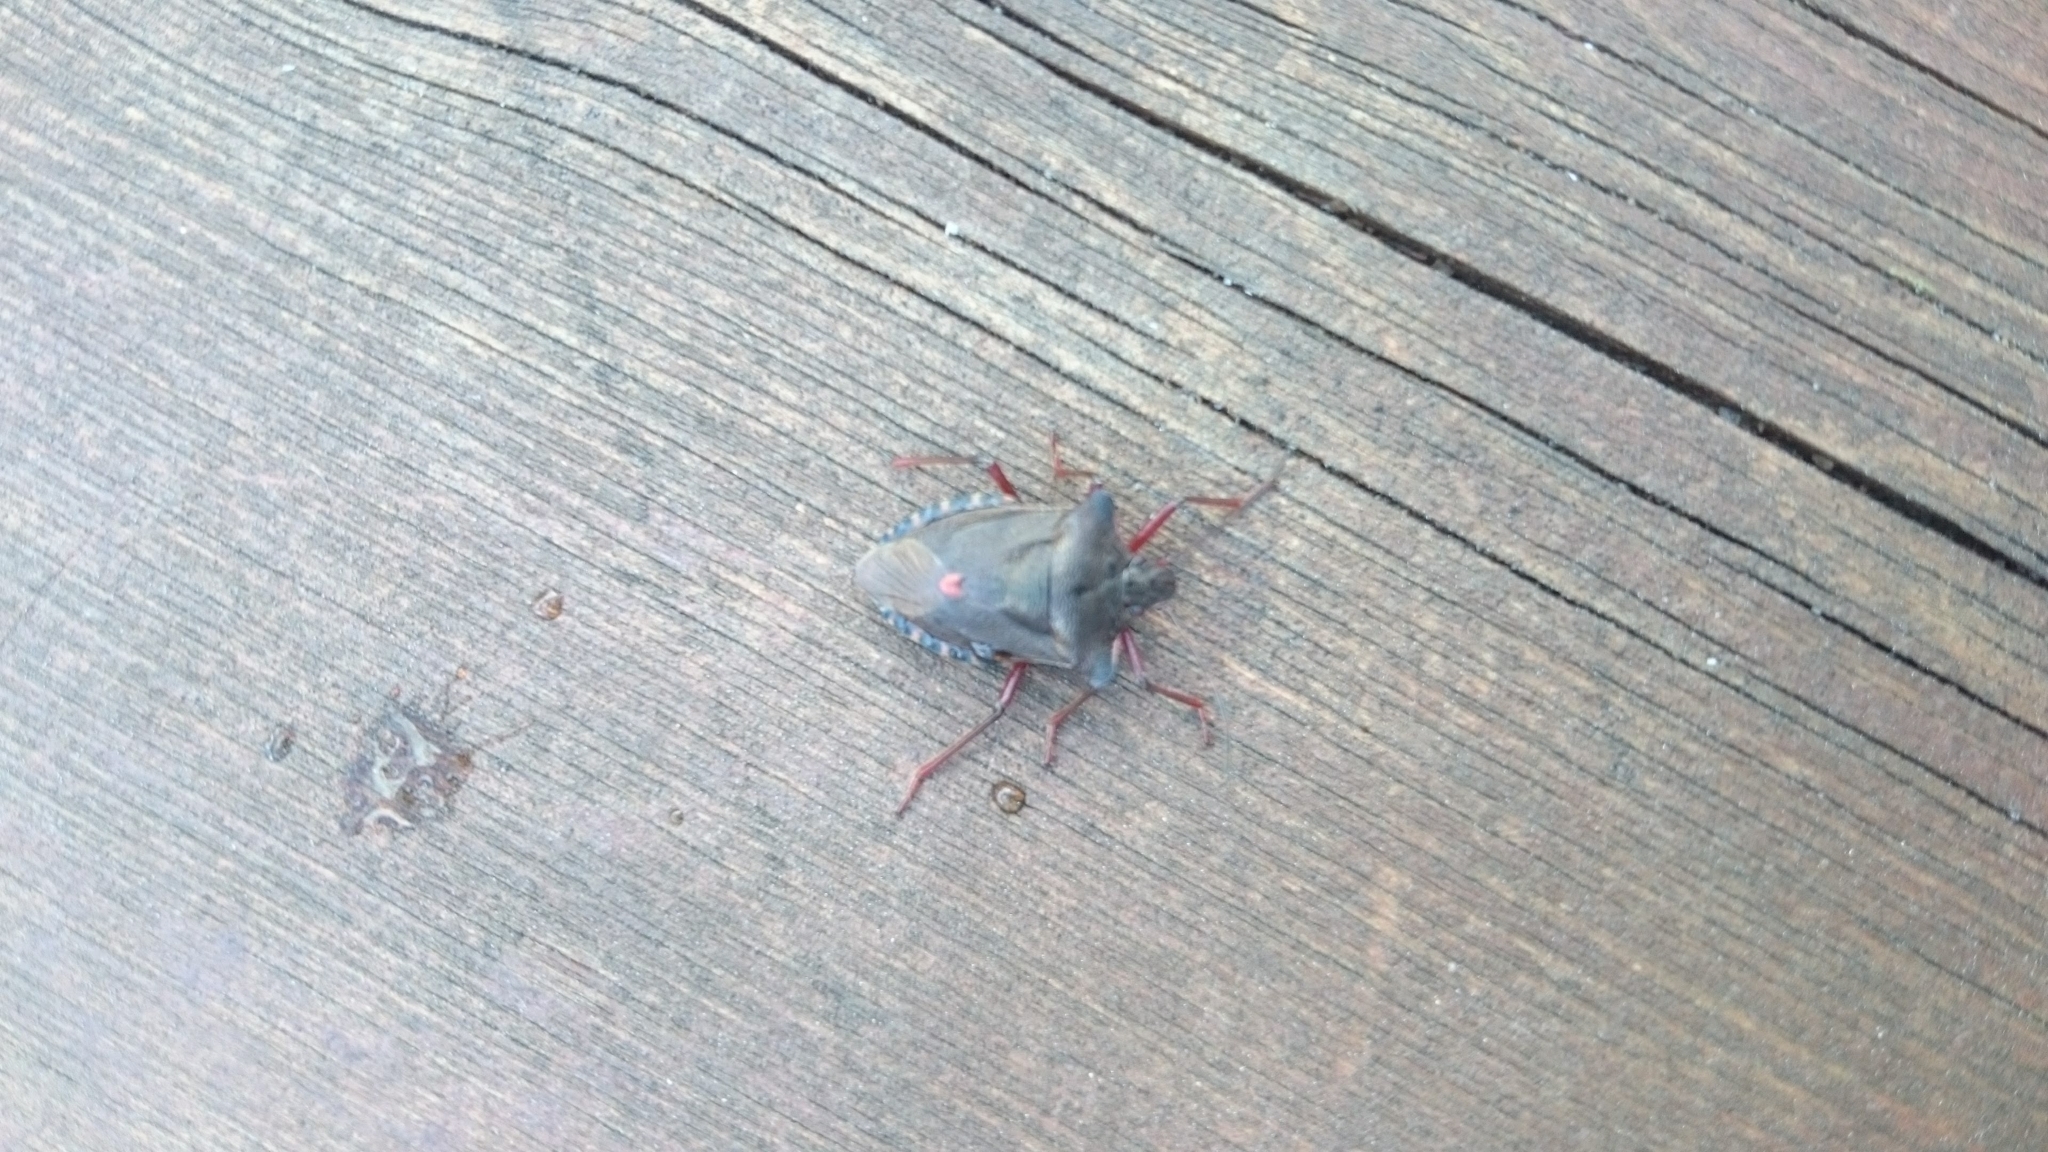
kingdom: Animalia
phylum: Arthropoda
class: Insecta
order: Hemiptera
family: Pentatomidae
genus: Pentatoma
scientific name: Pentatoma rufipes
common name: Forest bug
